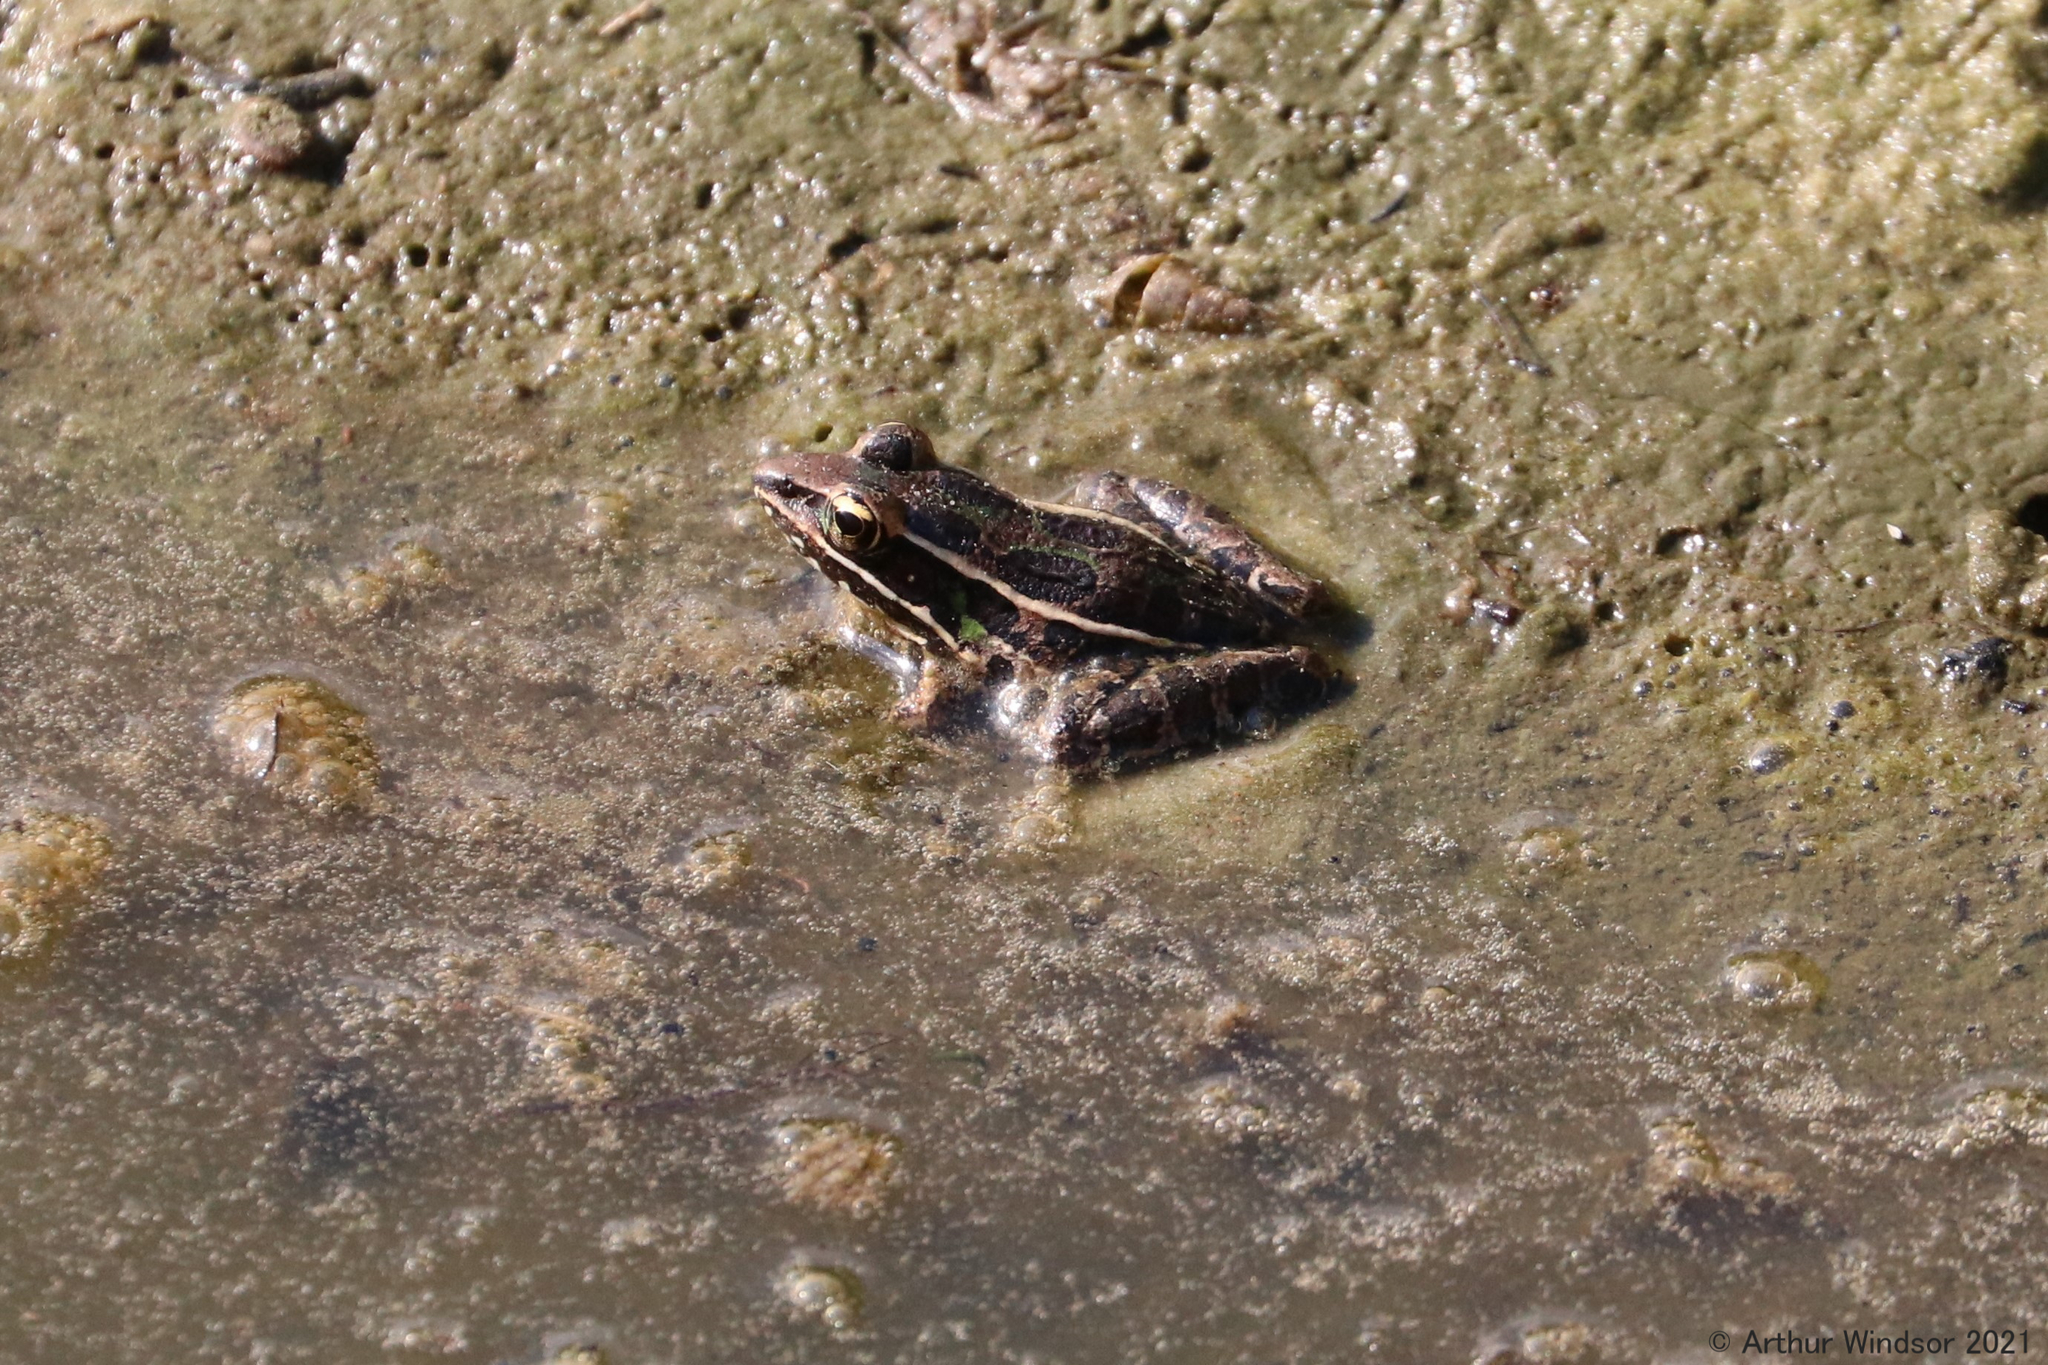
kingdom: Animalia
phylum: Chordata
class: Amphibia
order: Anura
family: Ranidae
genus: Lithobates
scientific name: Lithobates sphenocephalus
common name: Southern leopard frog
